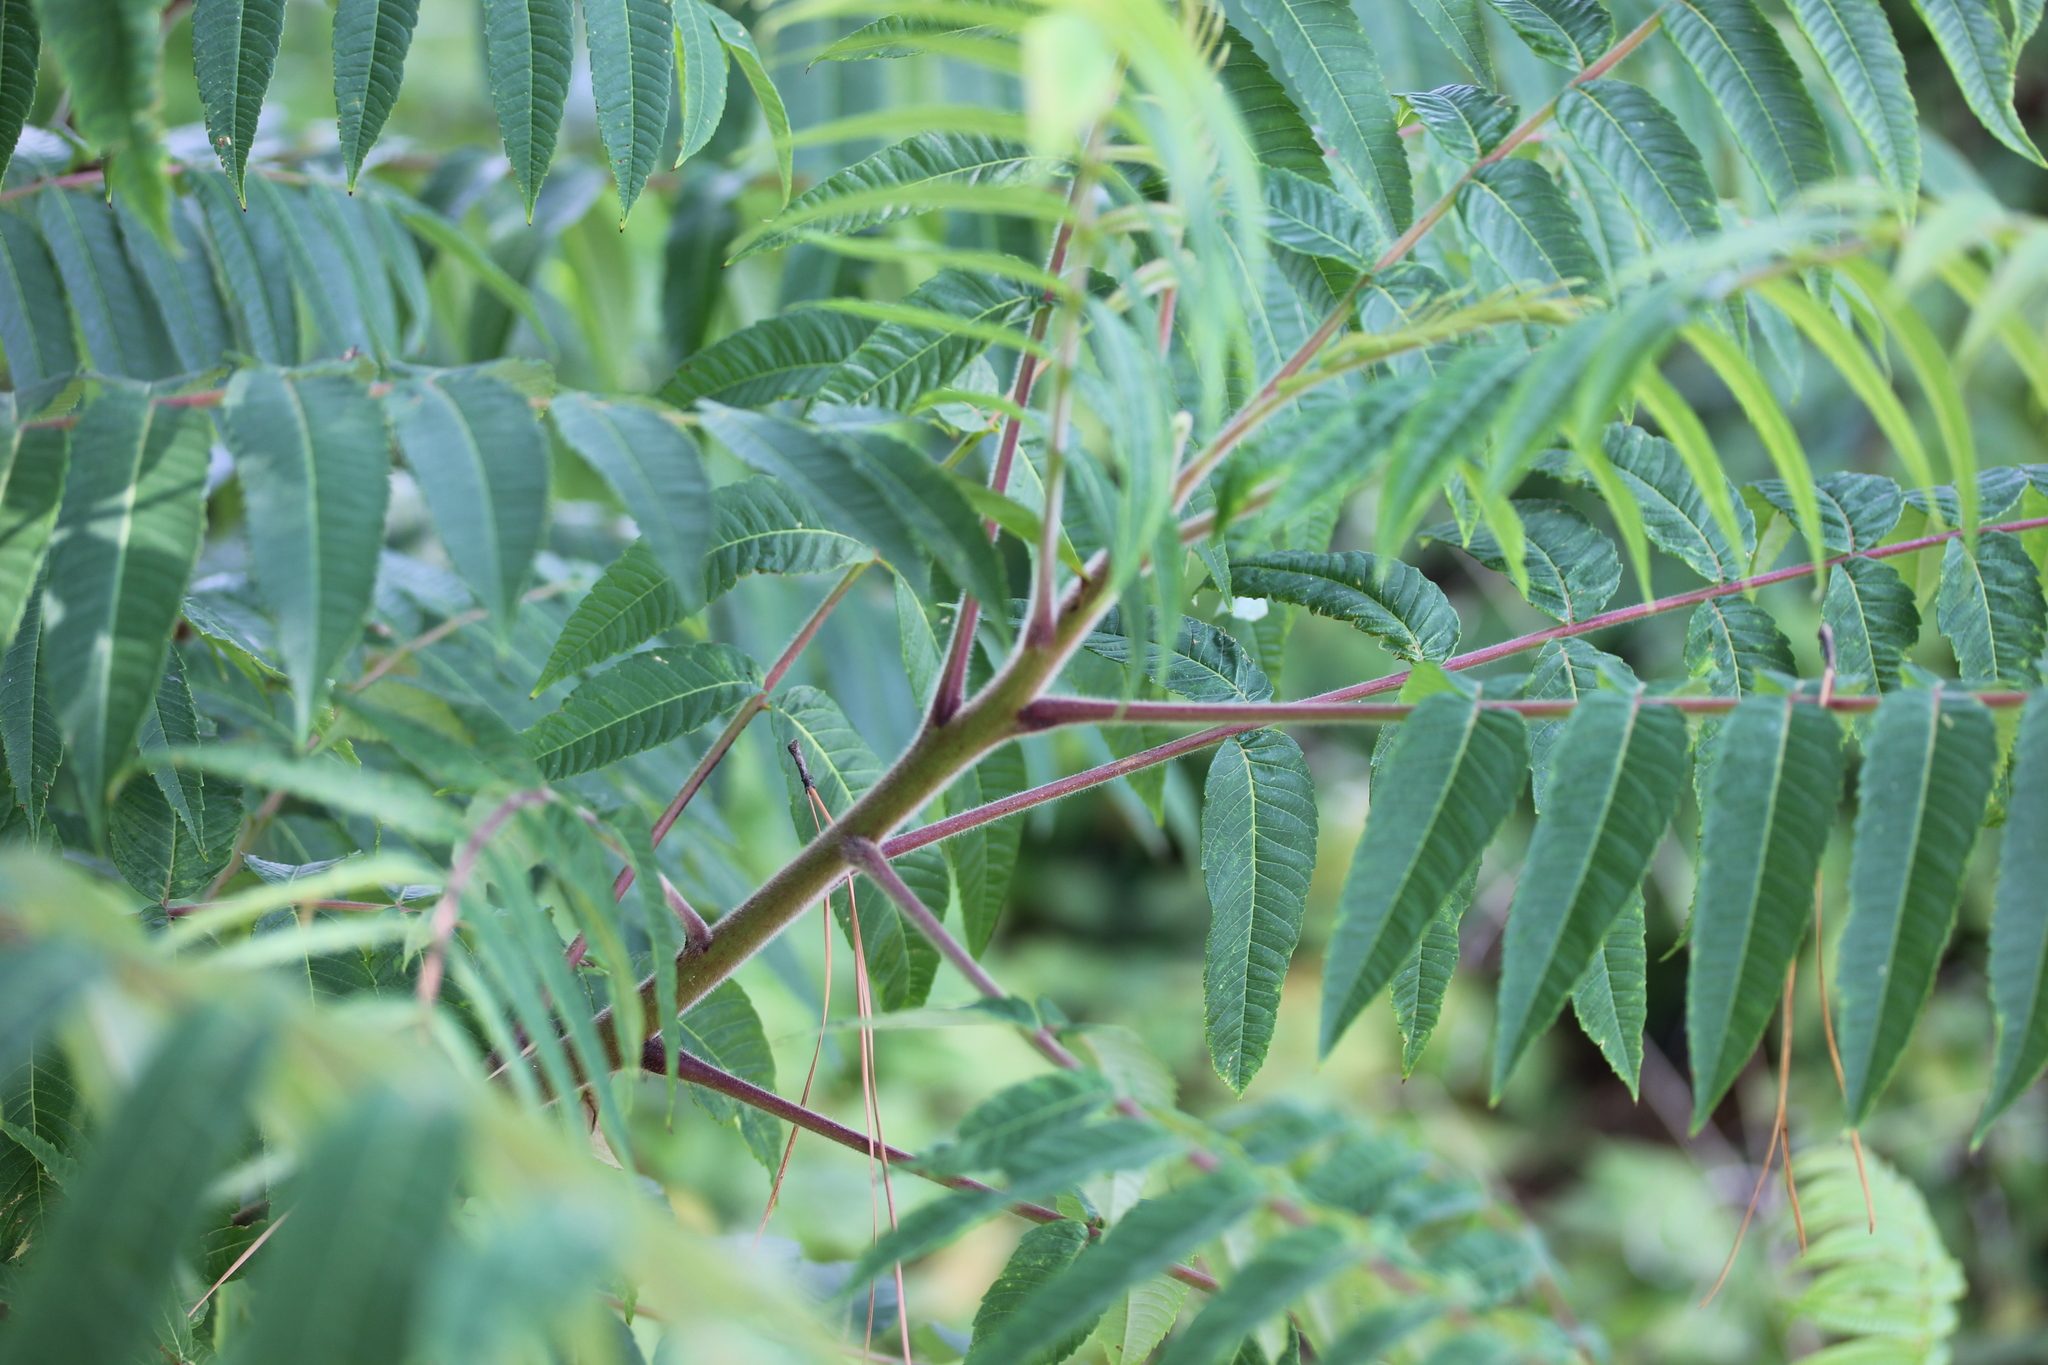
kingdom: Plantae
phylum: Tracheophyta
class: Magnoliopsida
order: Sapindales
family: Anacardiaceae
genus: Rhus
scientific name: Rhus typhina
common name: Staghorn sumac
